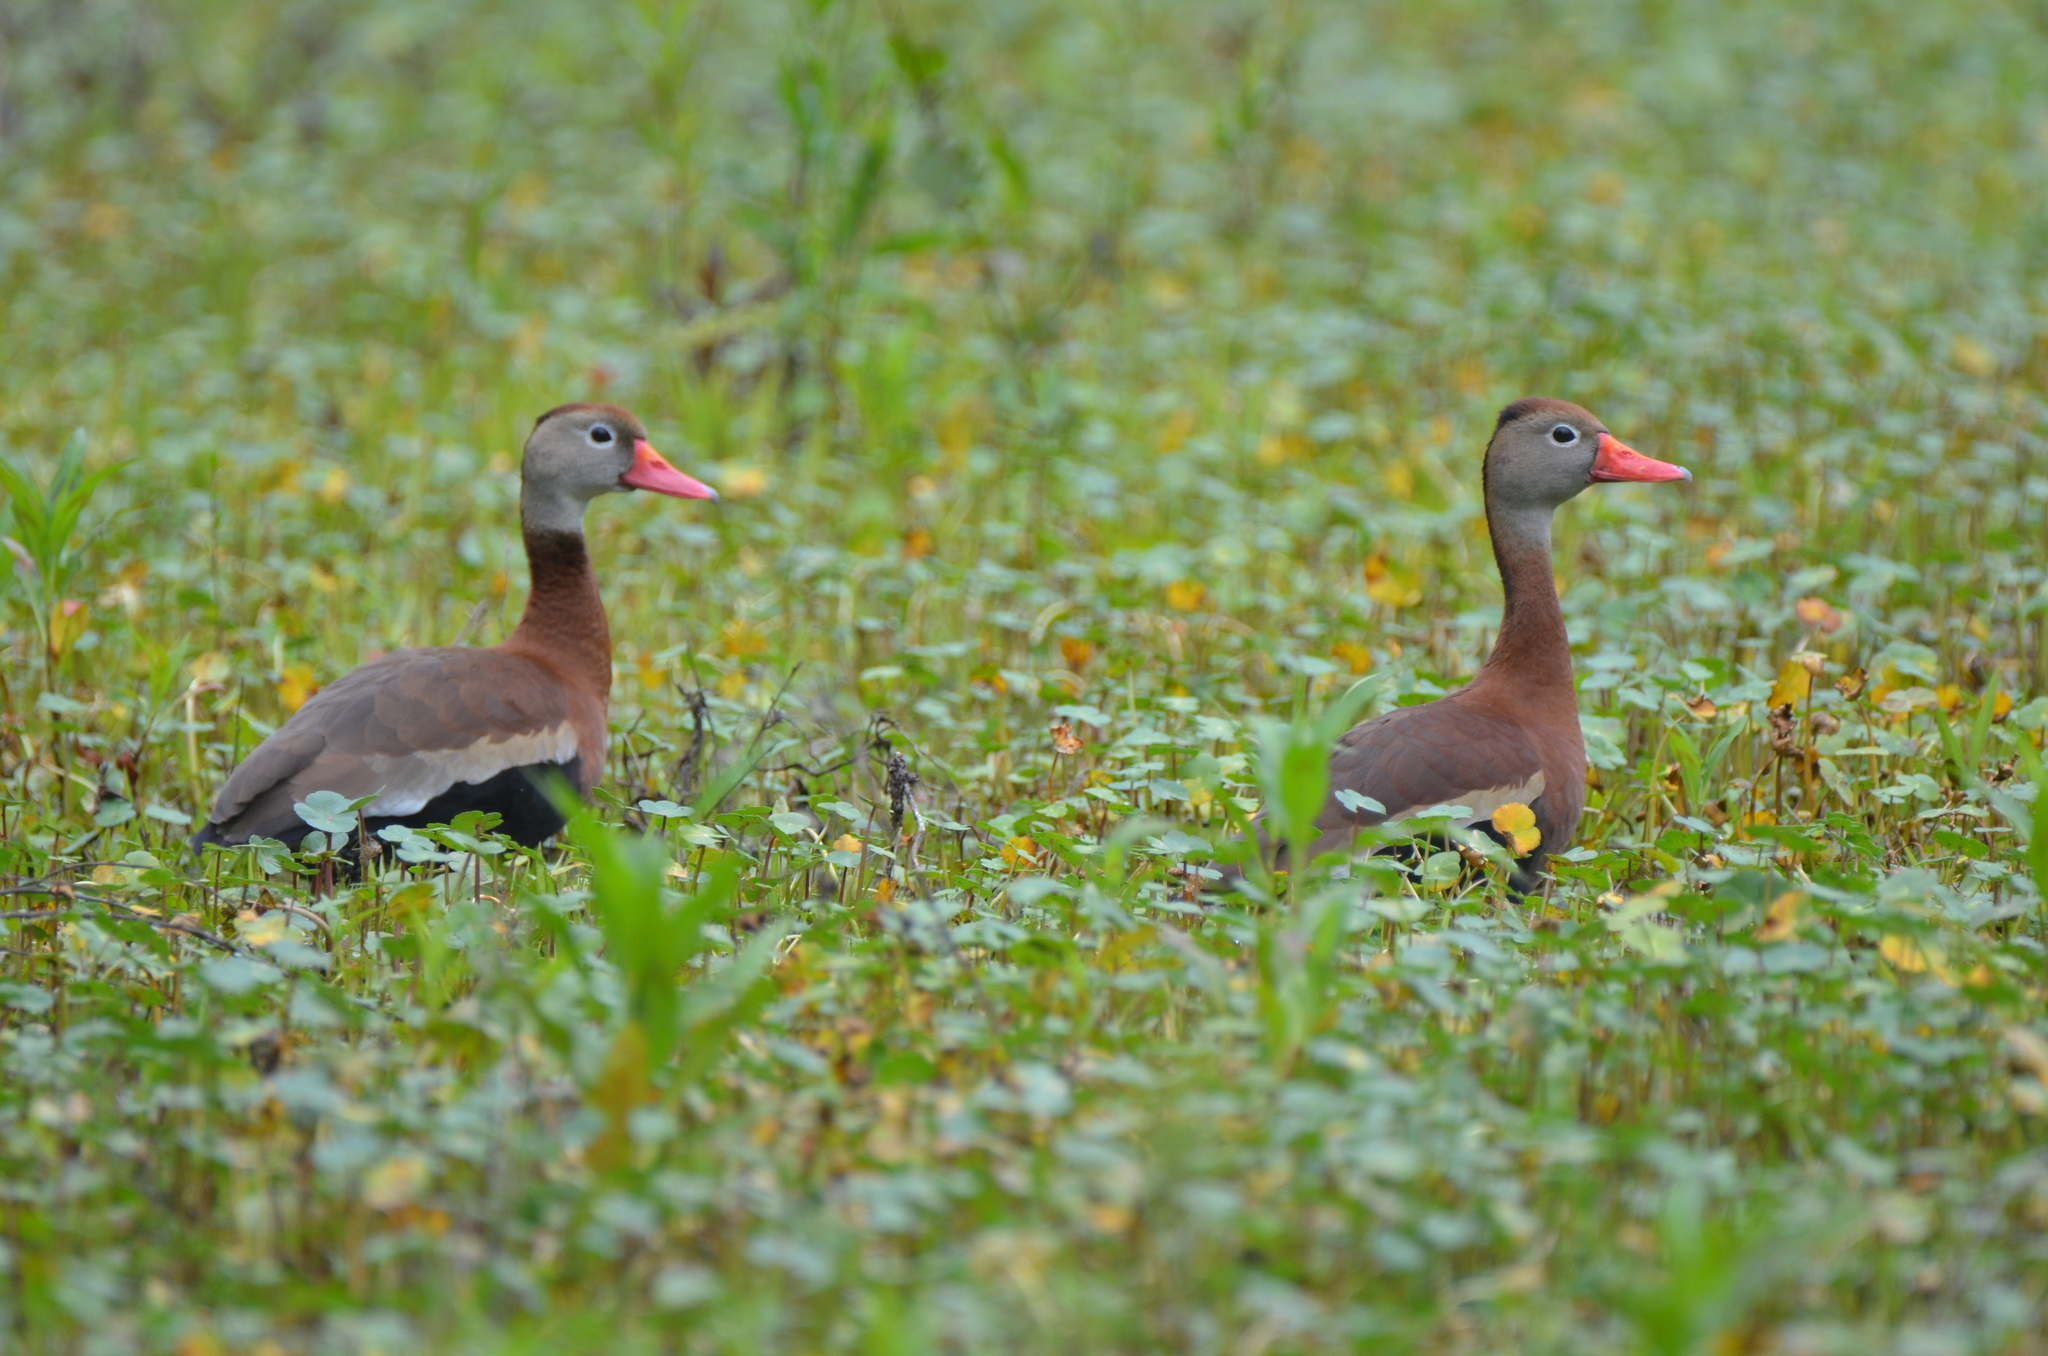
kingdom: Animalia
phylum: Chordata
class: Aves
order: Anseriformes
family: Anatidae
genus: Dendrocygna
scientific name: Dendrocygna autumnalis
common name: Black-bellied whistling duck
